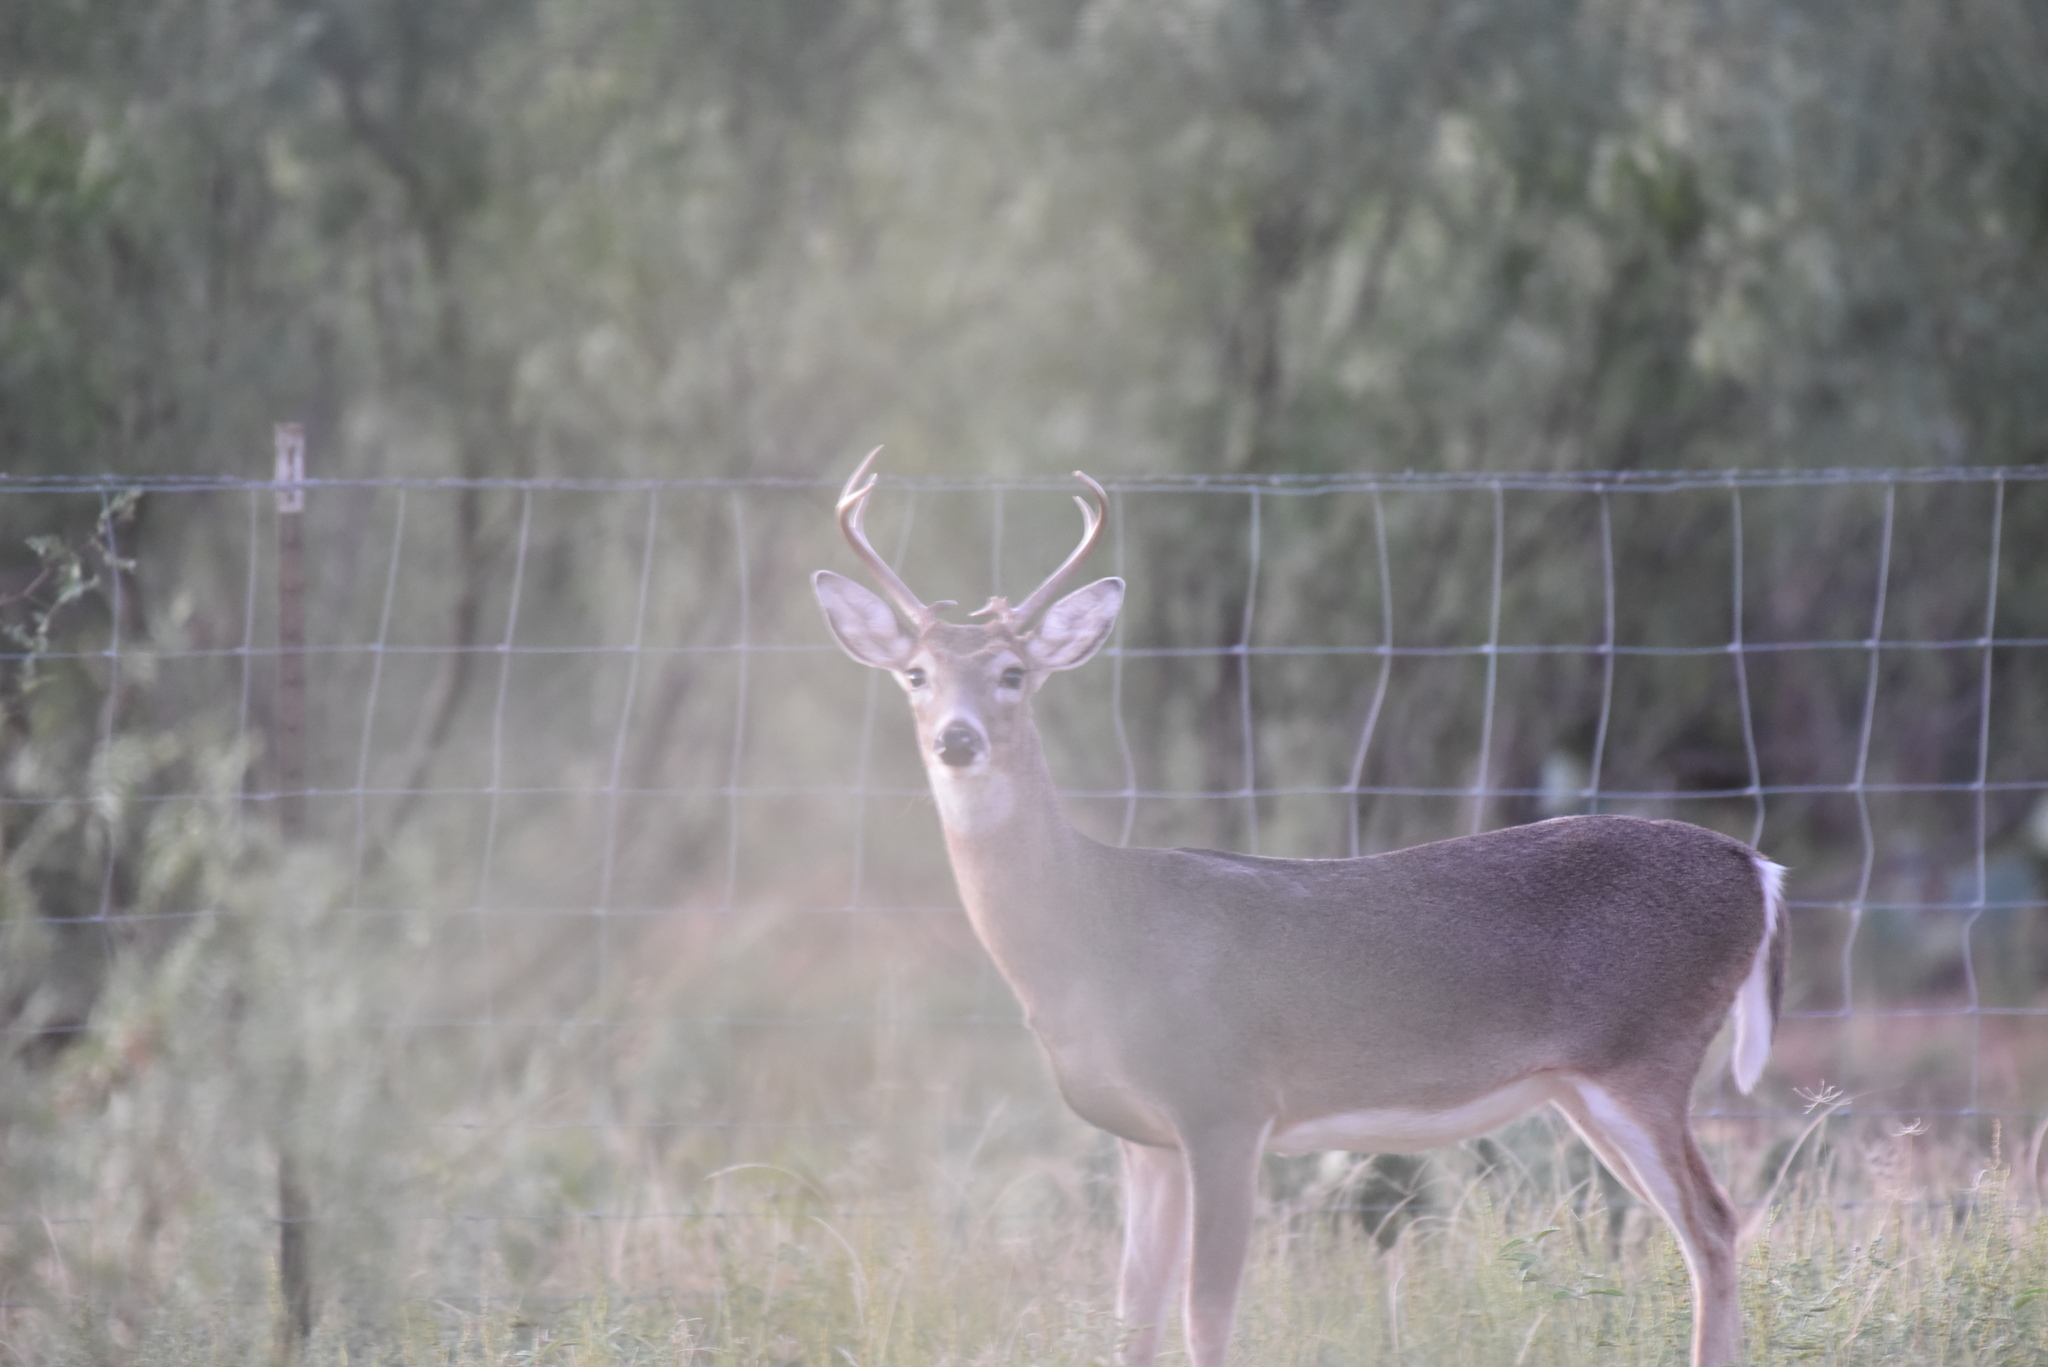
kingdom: Animalia
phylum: Chordata
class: Mammalia
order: Artiodactyla
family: Cervidae
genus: Odocoileus
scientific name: Odocoileus virginianus
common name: White-tailed deer
